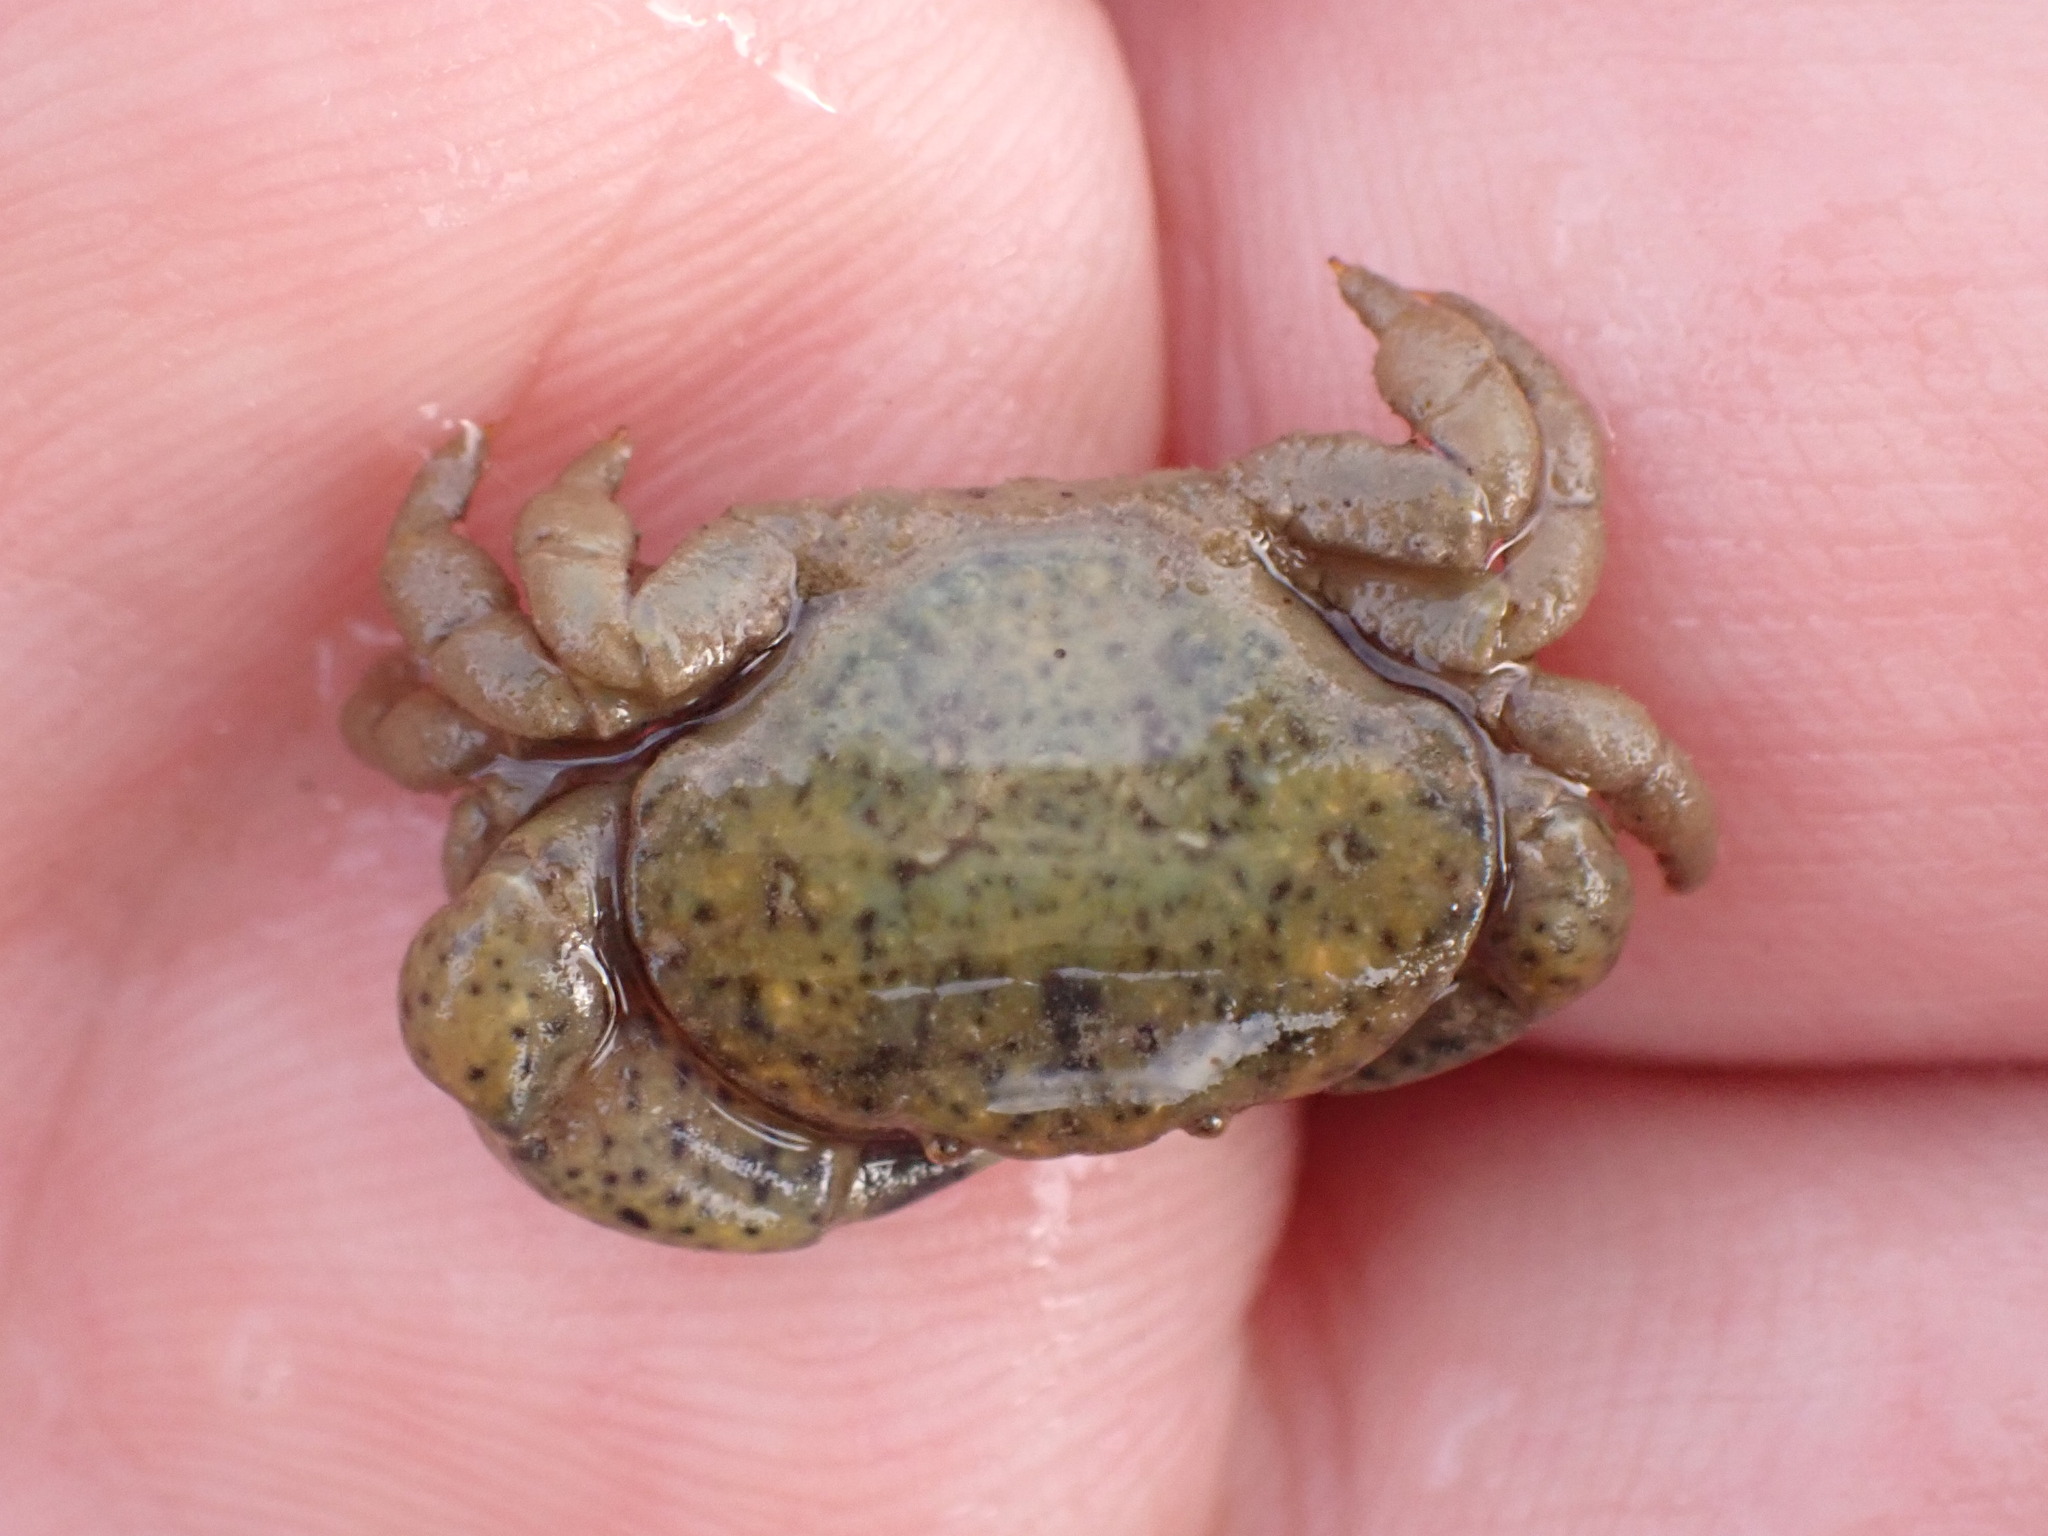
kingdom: Animalia
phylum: Arthropoda
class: Malacostraca
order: Decapoda
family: Heteroziidae
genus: Heterozius
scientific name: Heterozius rotundifrons
